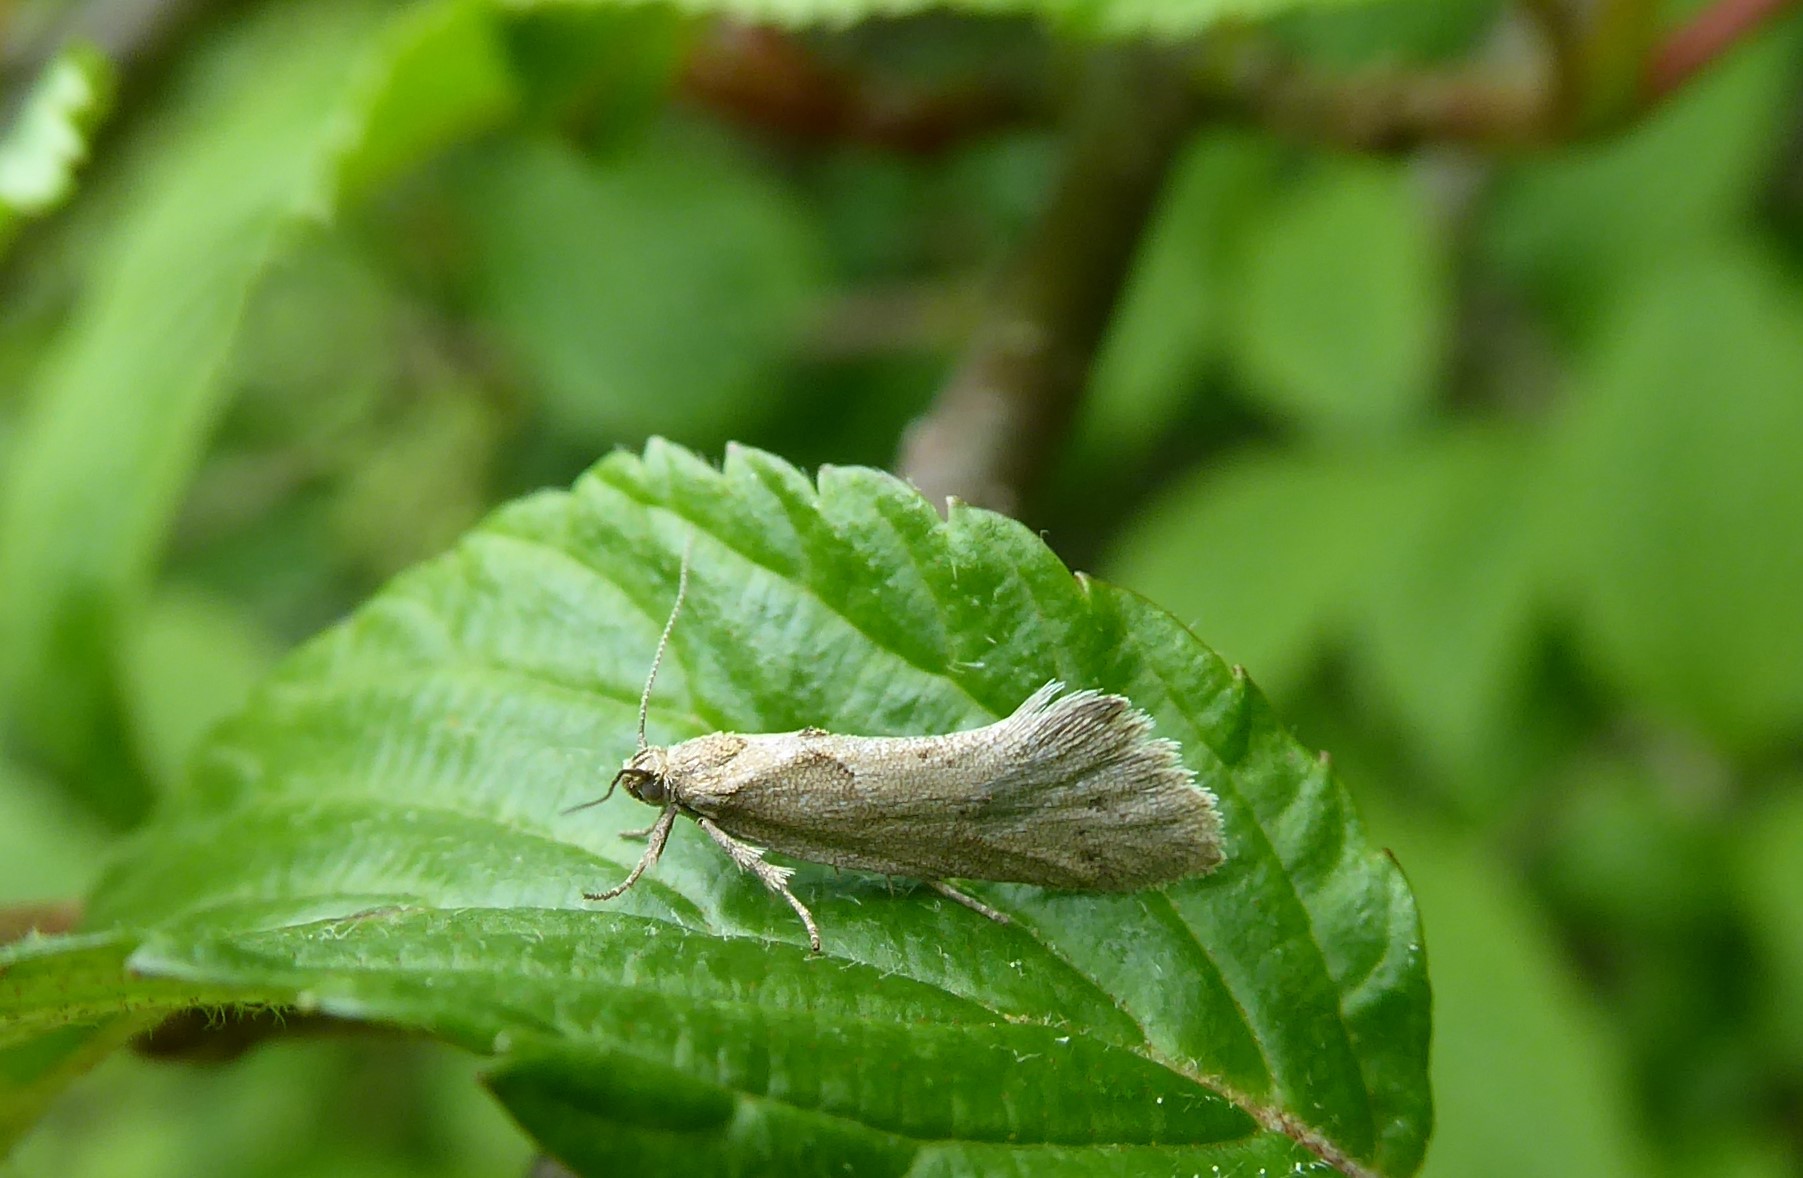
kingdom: Animalia
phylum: Arthropoda
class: Insecta
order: Lepidoptera
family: Oecophoridae
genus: Tingena
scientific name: Tingena brachyacma
